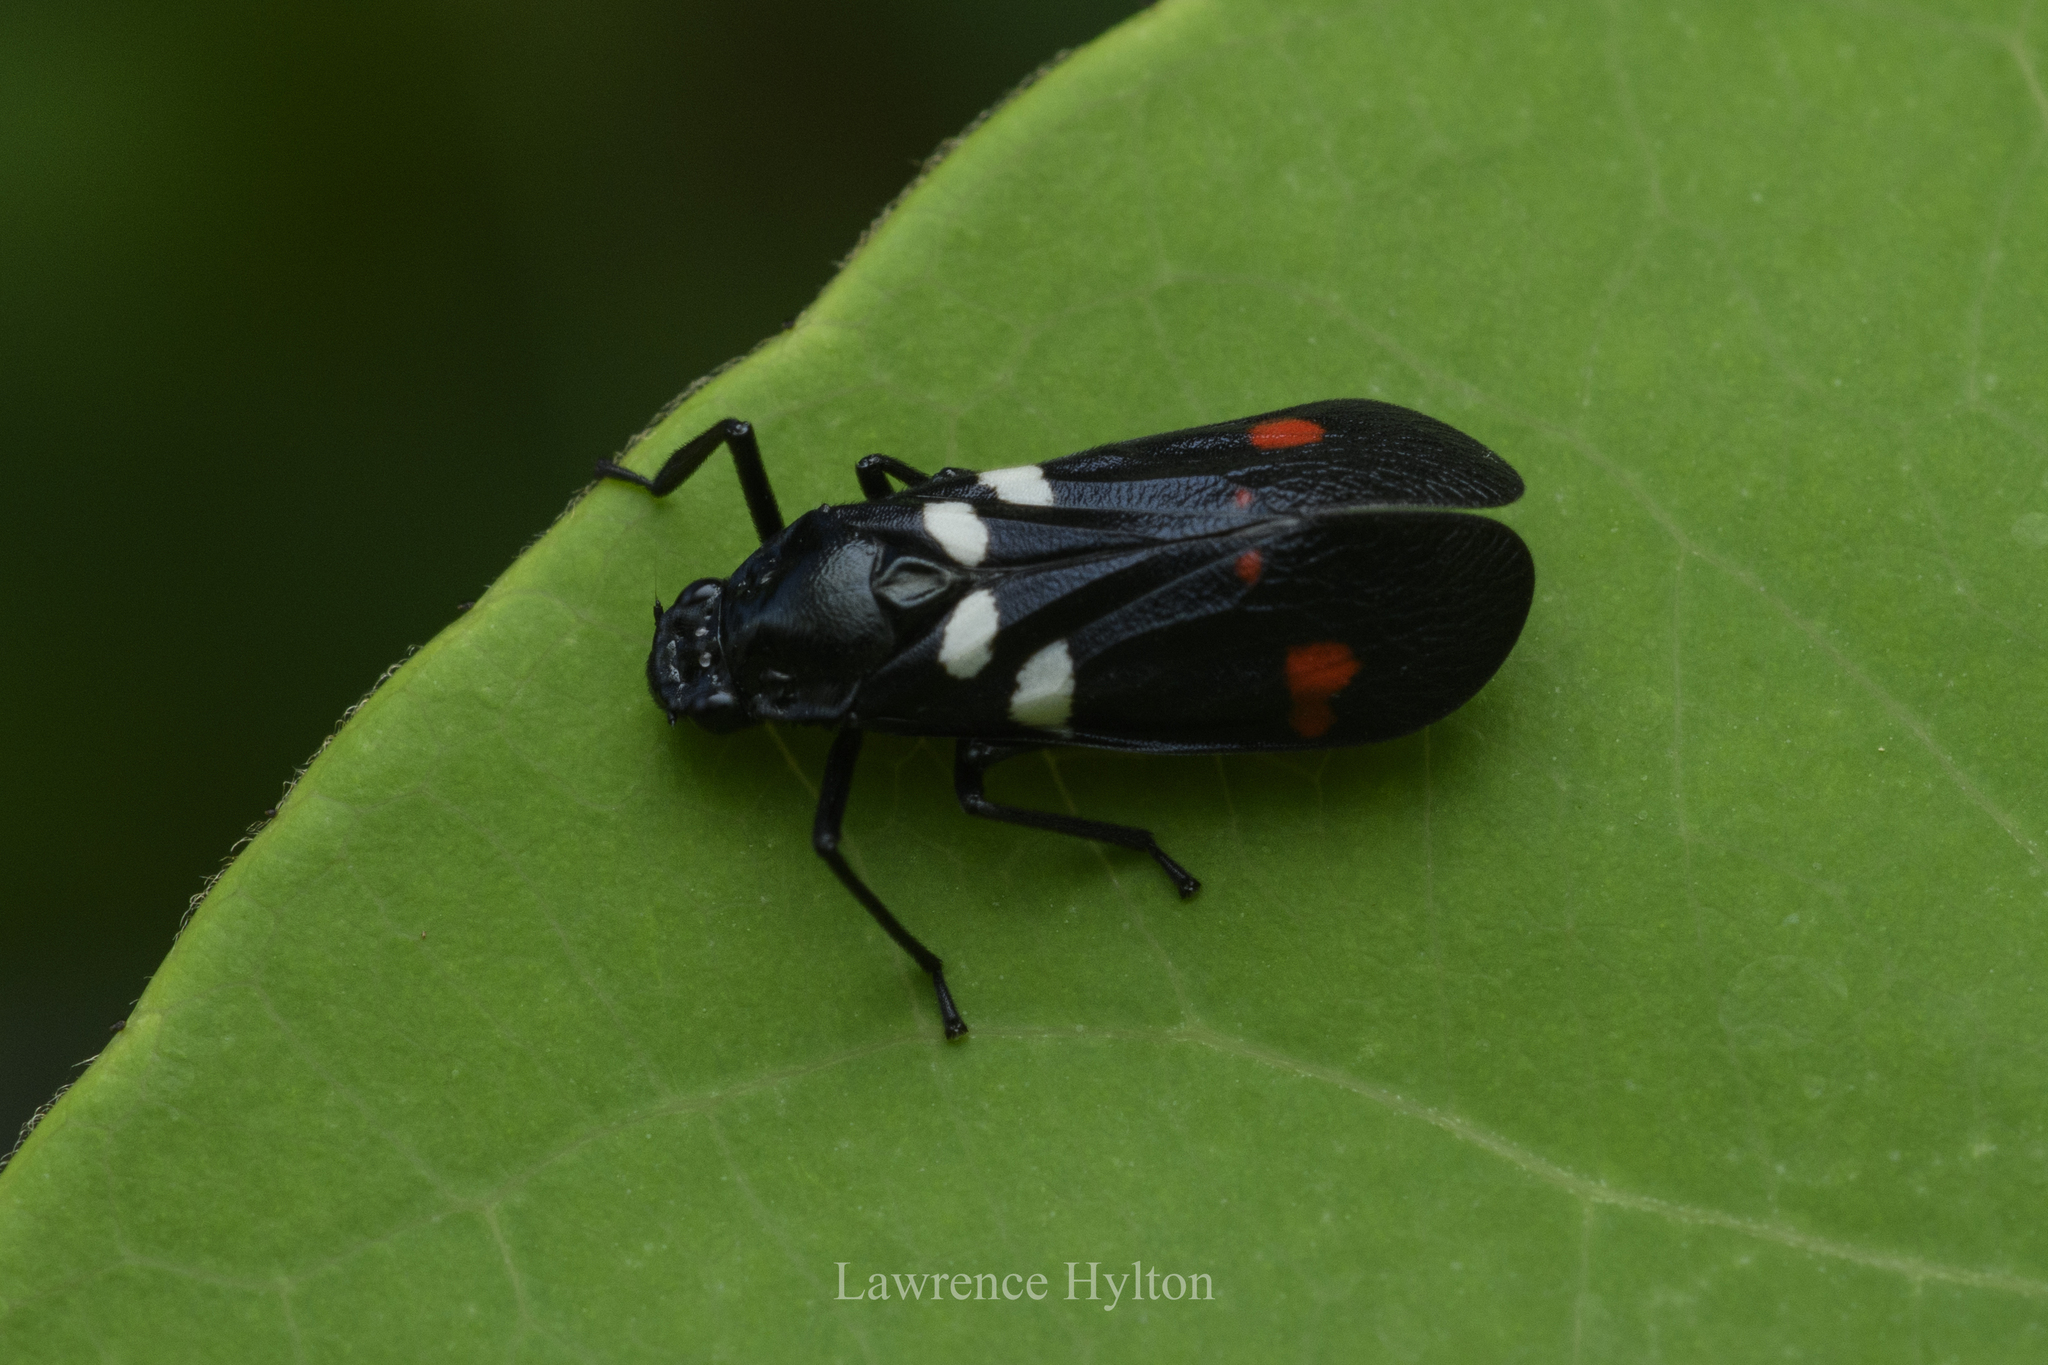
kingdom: Animalia
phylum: Arthropoda
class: Insecta
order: Hemiptera
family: Cercopidae
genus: Callitettix
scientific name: Callitettix versicolor
